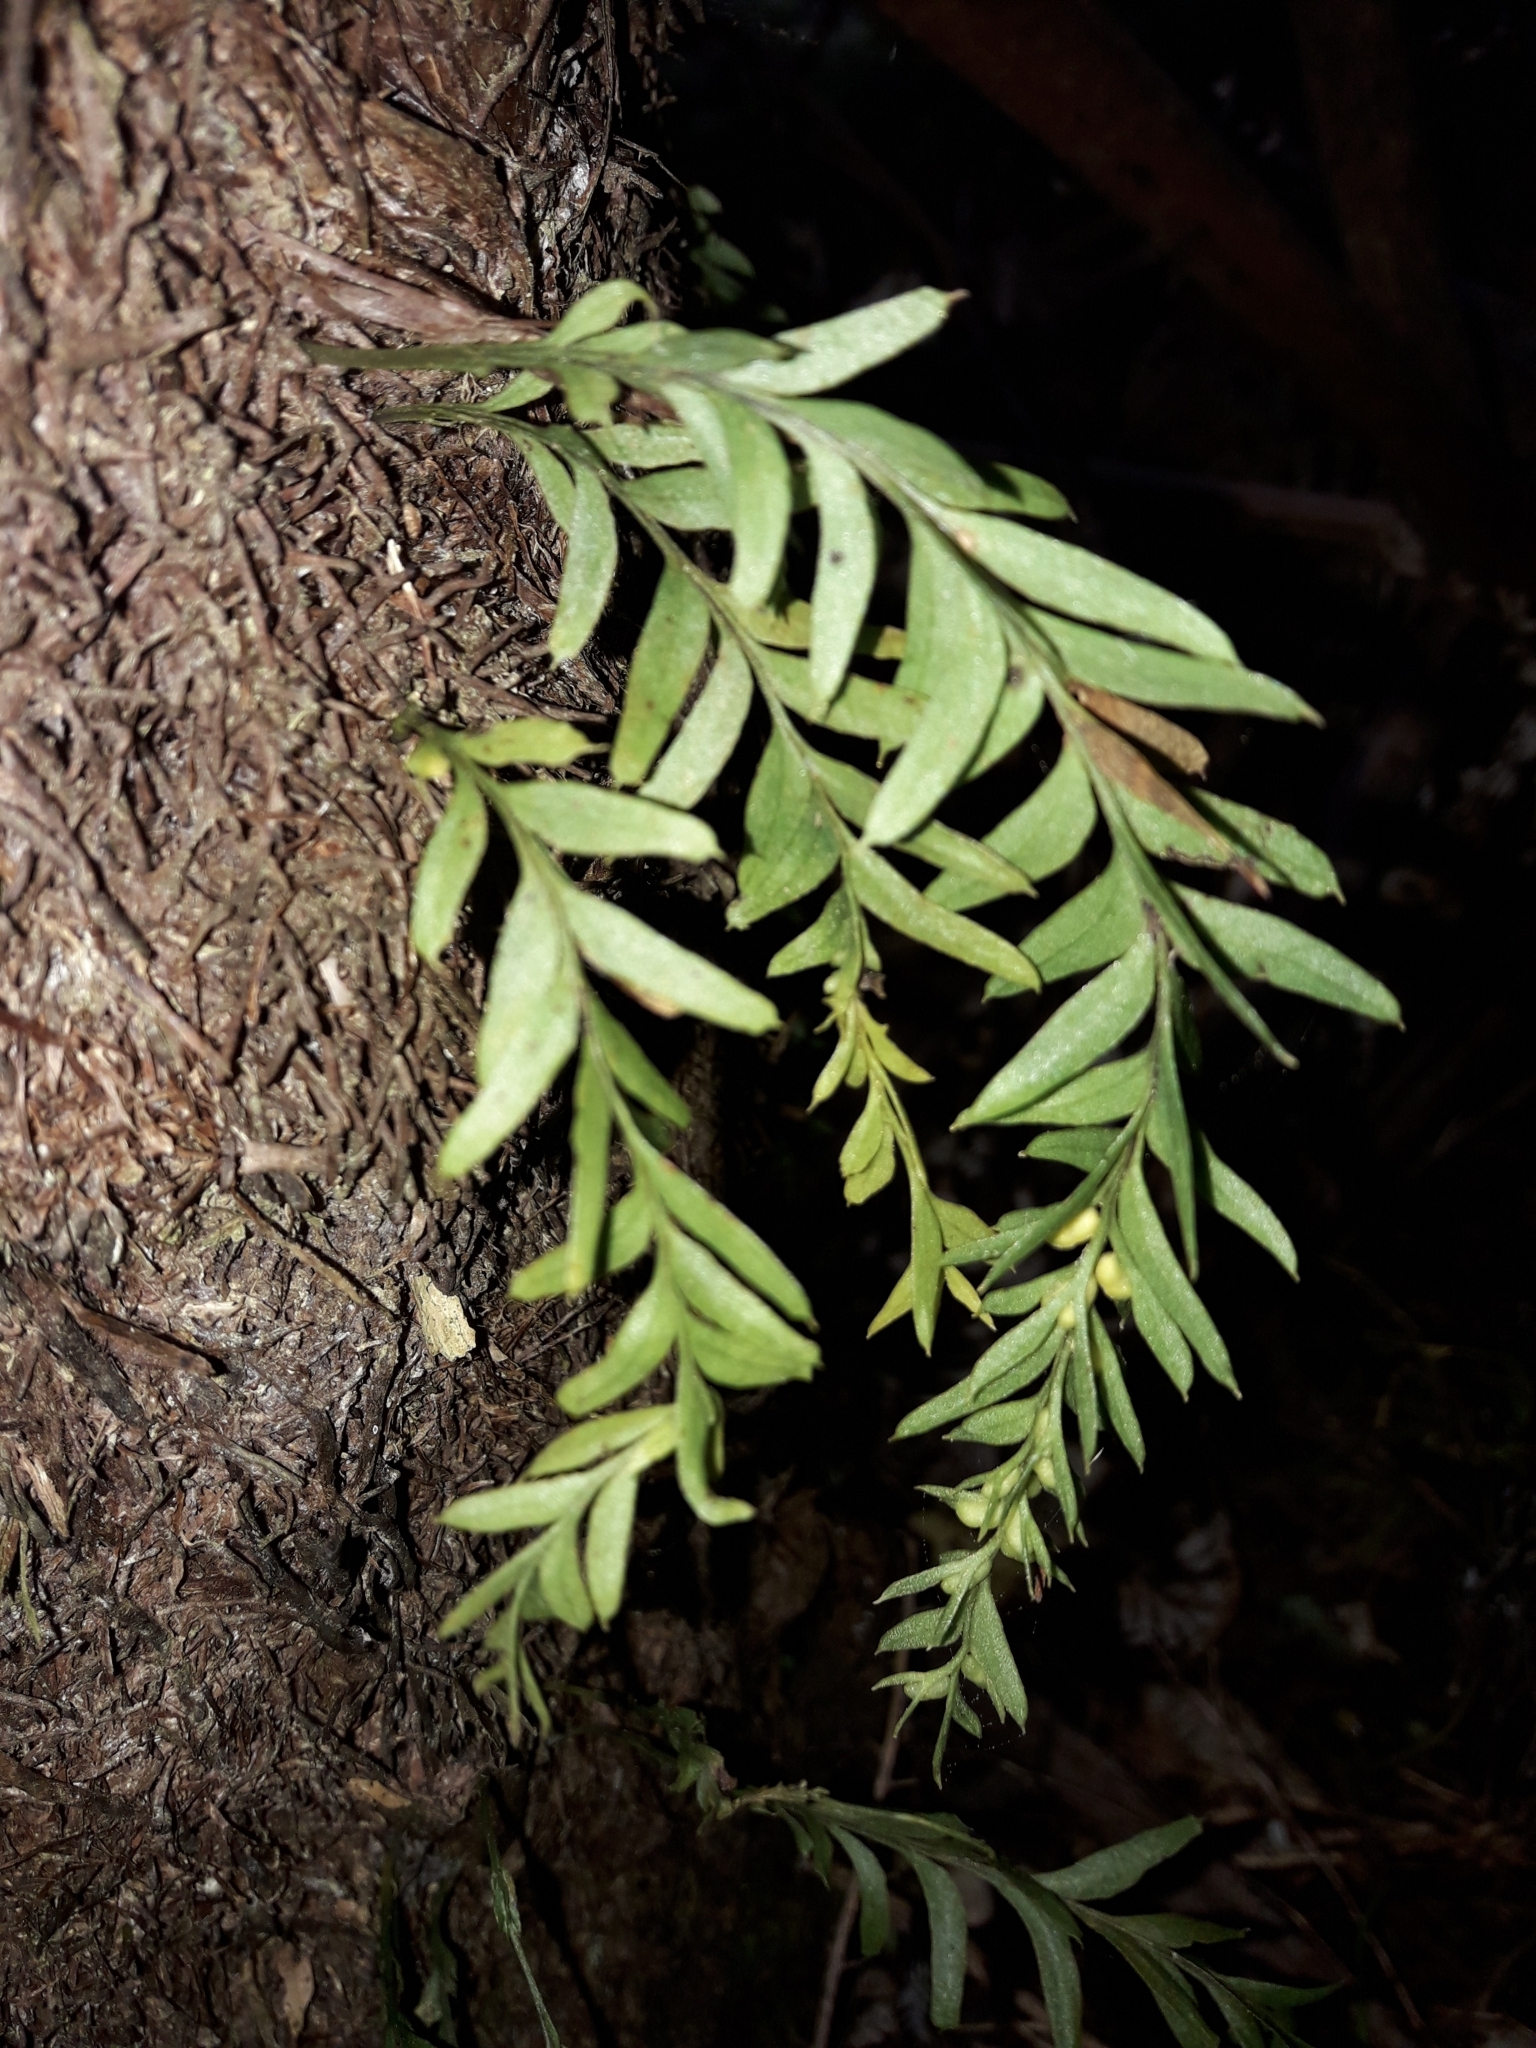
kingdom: Plantae
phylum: Tracheophyta
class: Polypodiopsida
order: Psilotales
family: Psilotaceae
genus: Tmesipteris
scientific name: Tmesipteris elongata
